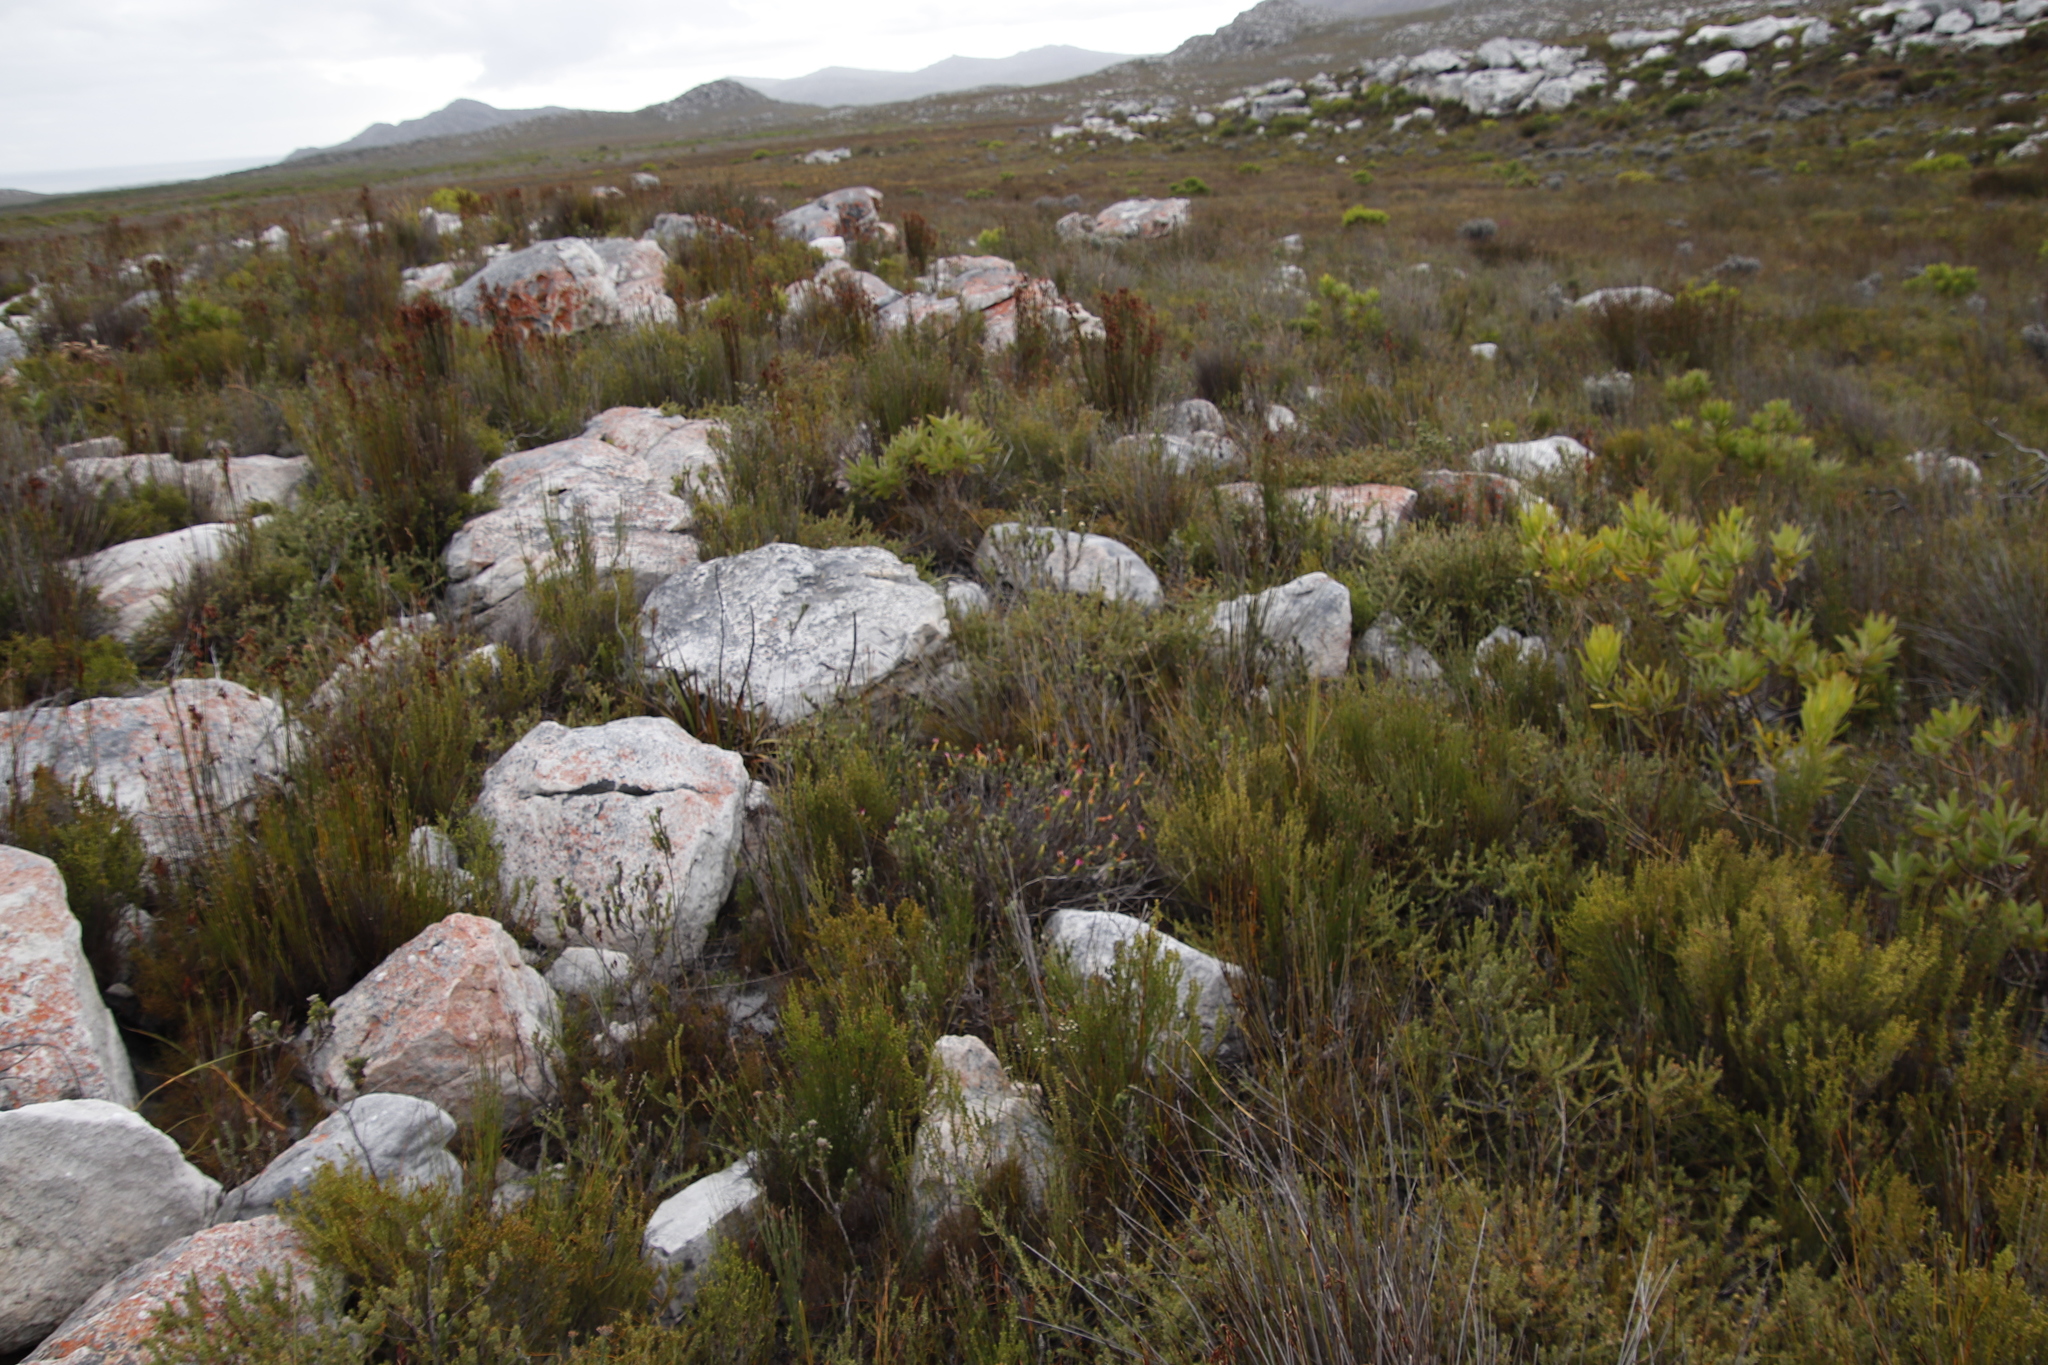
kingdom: Plantae
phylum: Tracheophyta
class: Magnoliopsida
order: Myrtales
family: Penaeaceae
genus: Saltera
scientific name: Saltera sarcocolla
